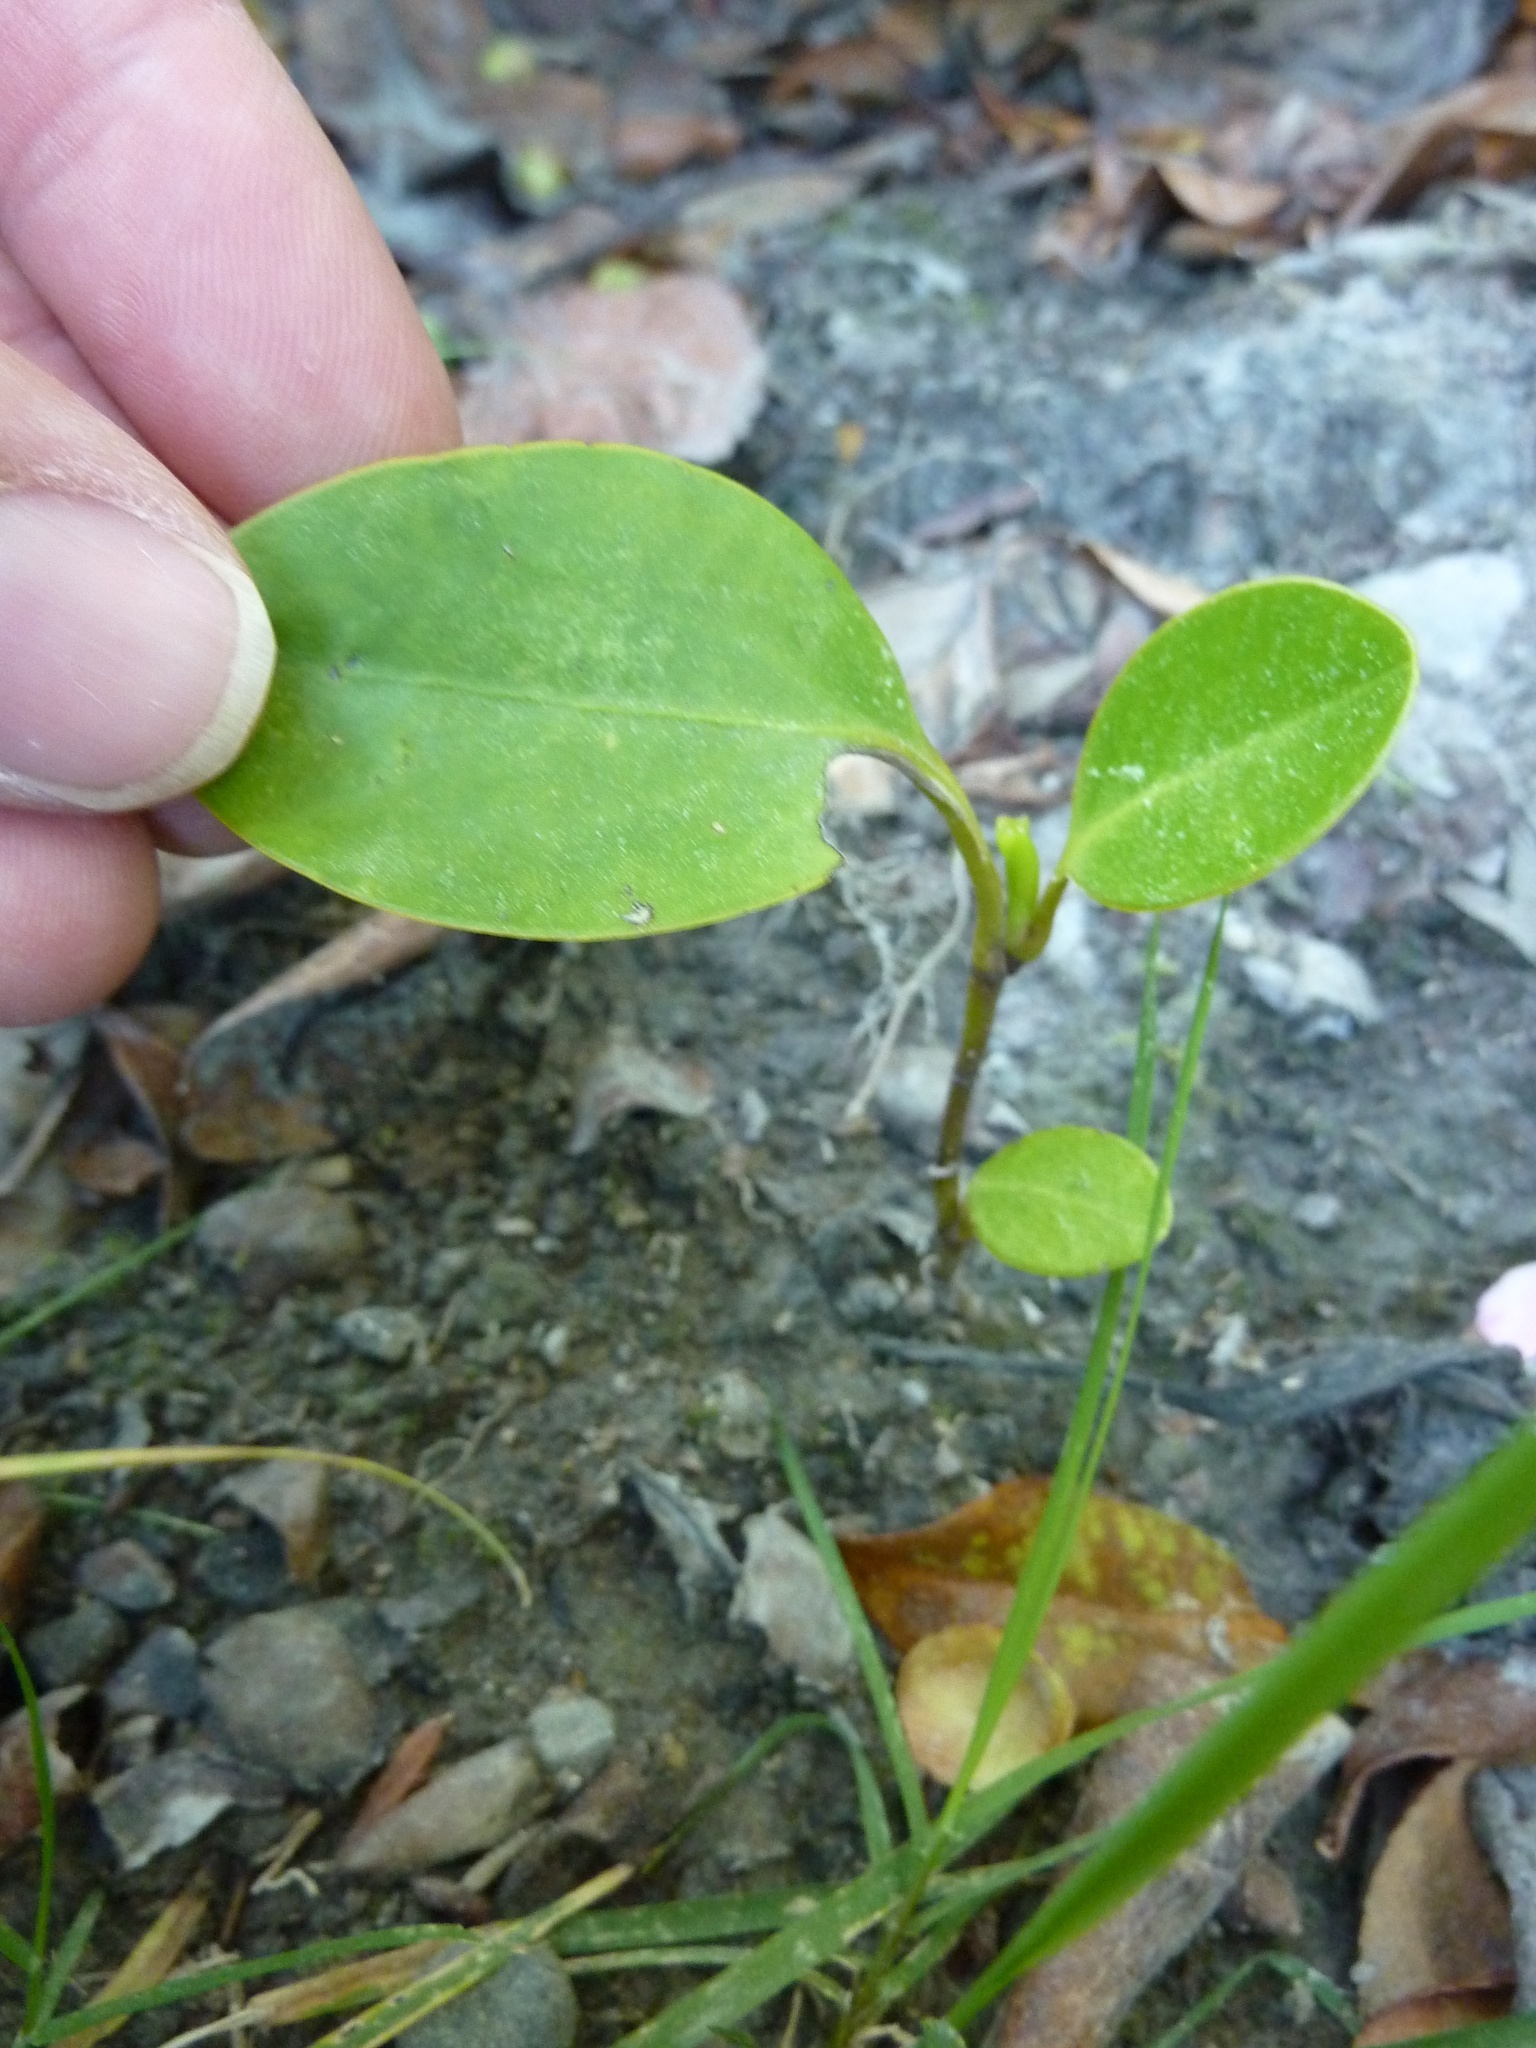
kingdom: Plantae
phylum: Tracheophyta
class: Magnoliopsida
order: Apiales
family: Griseliniaceae
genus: Griselinia
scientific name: Griselinia littoralis
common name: New zealand broadleaf
